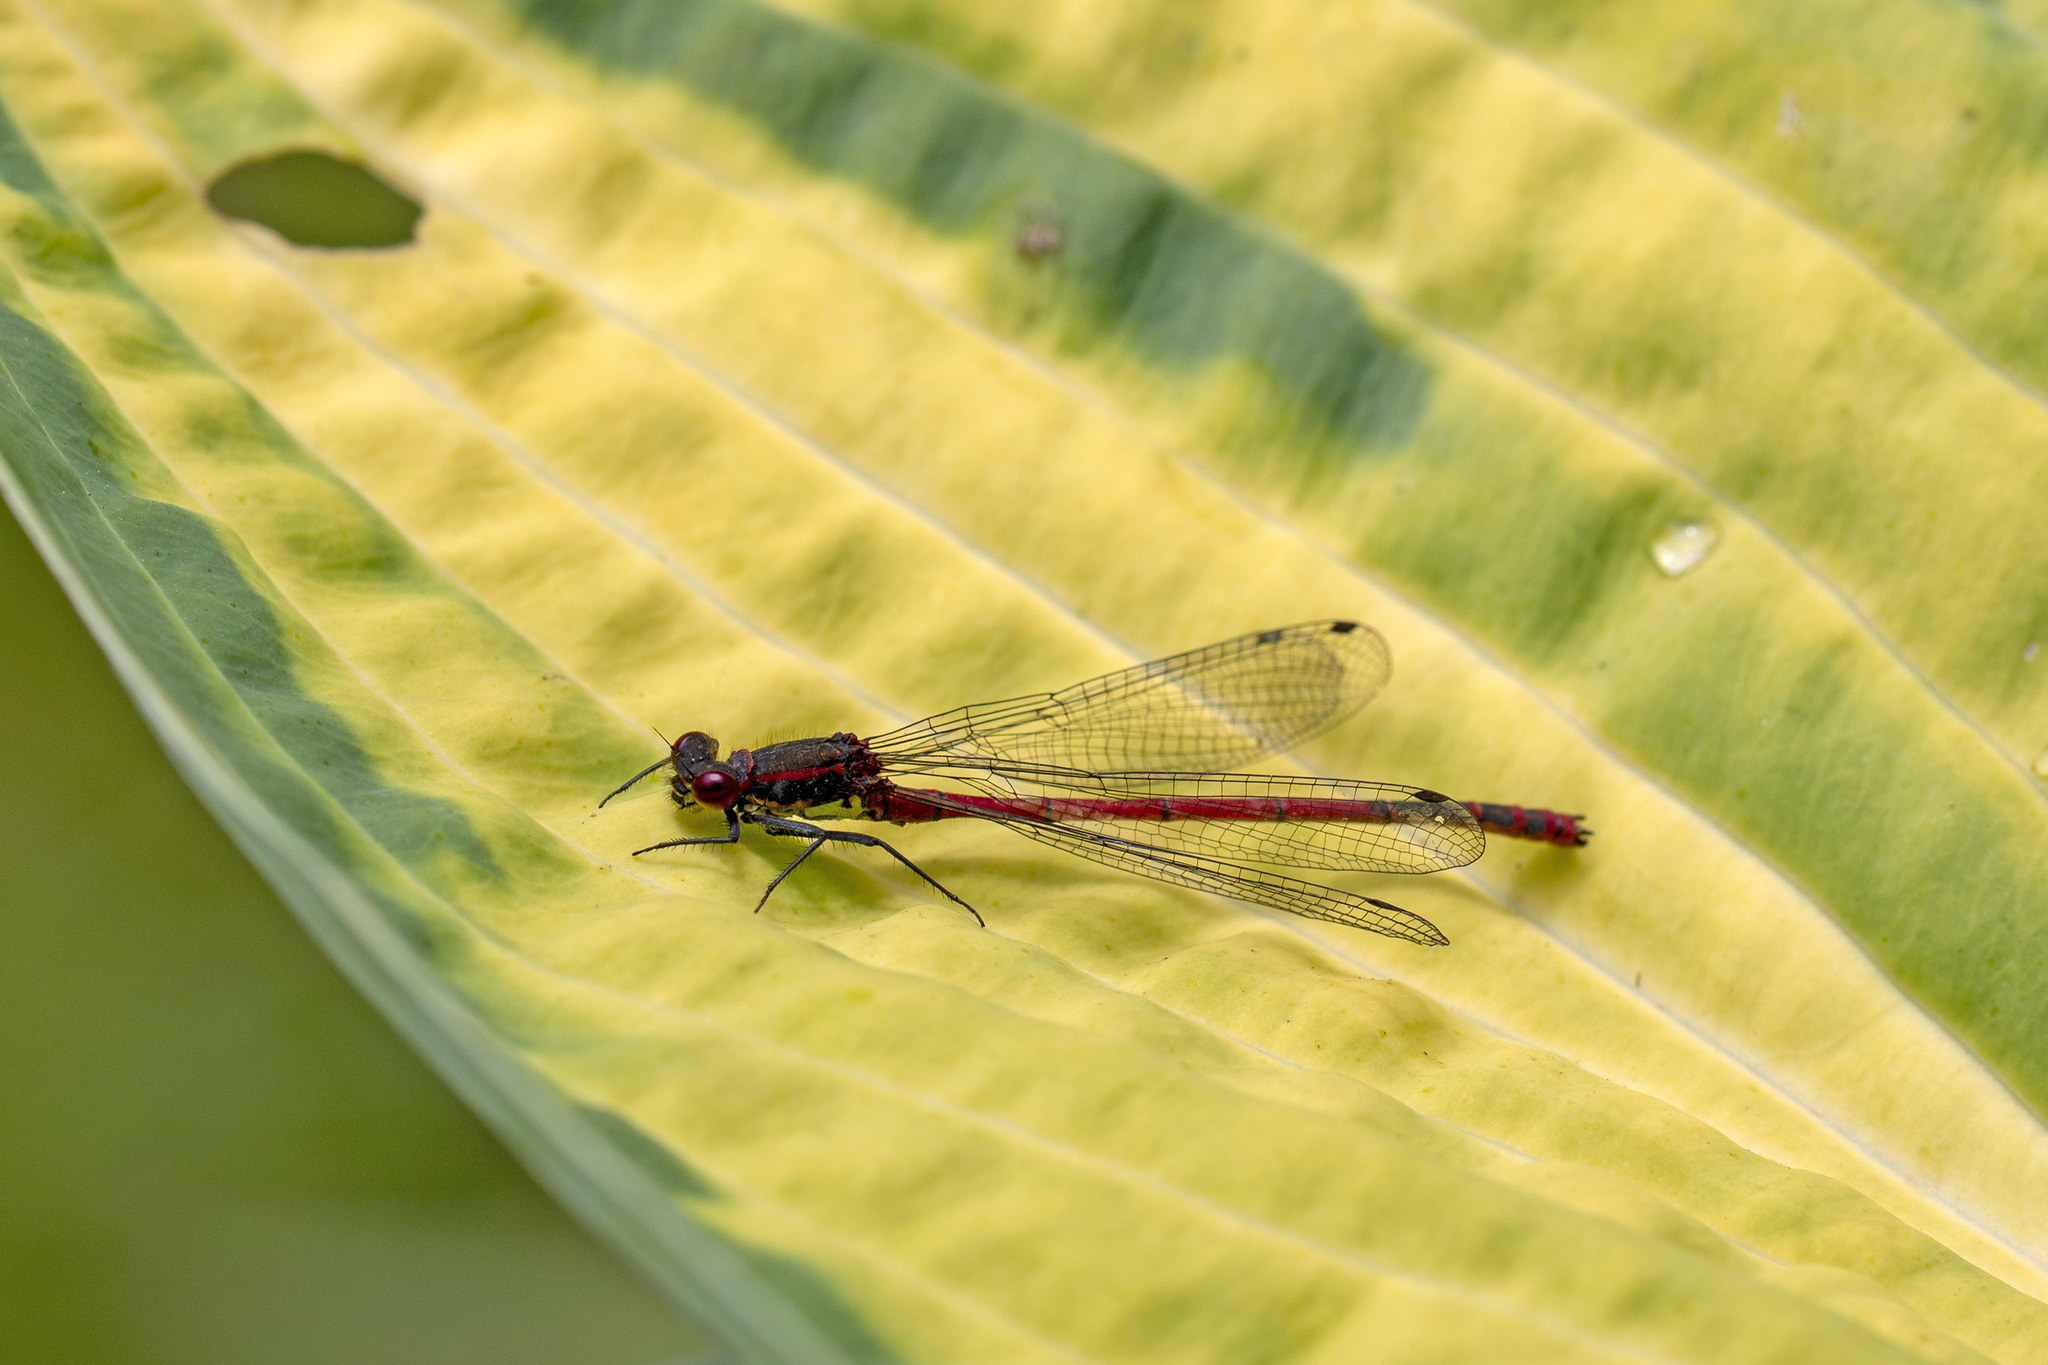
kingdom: Animalia
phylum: Arthropoda
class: Insecta
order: Odonata
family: Coenagrionidae
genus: Pyrrhosoma
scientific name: Pyrrhosoma nymphula
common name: Large red damsel
